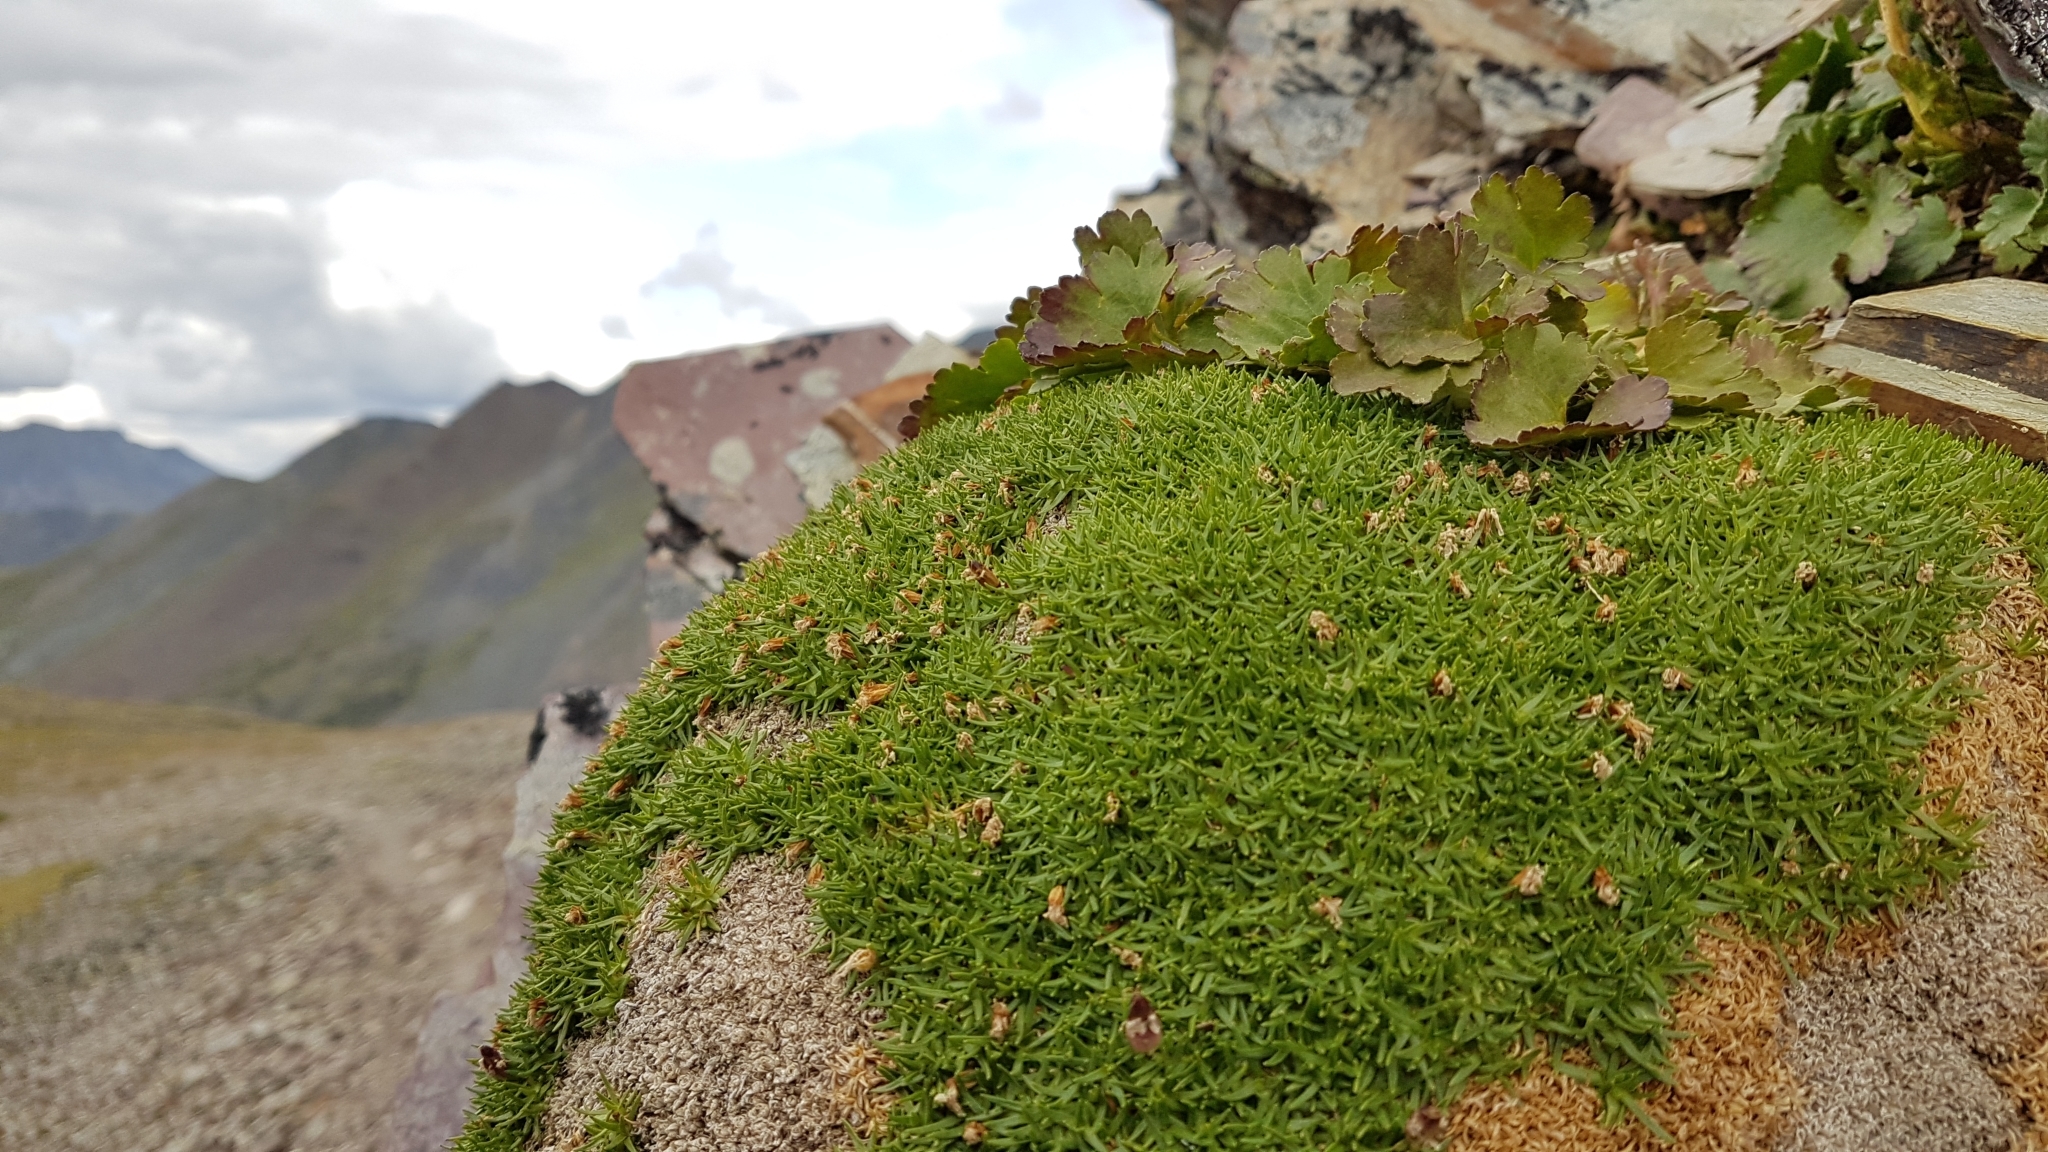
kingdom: Plantae
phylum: Tracheophyta
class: Magnoliopsida
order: Caryophyllales
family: Caryophyllaceae
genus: Silene
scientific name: Silene acaulis
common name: Moss campion
